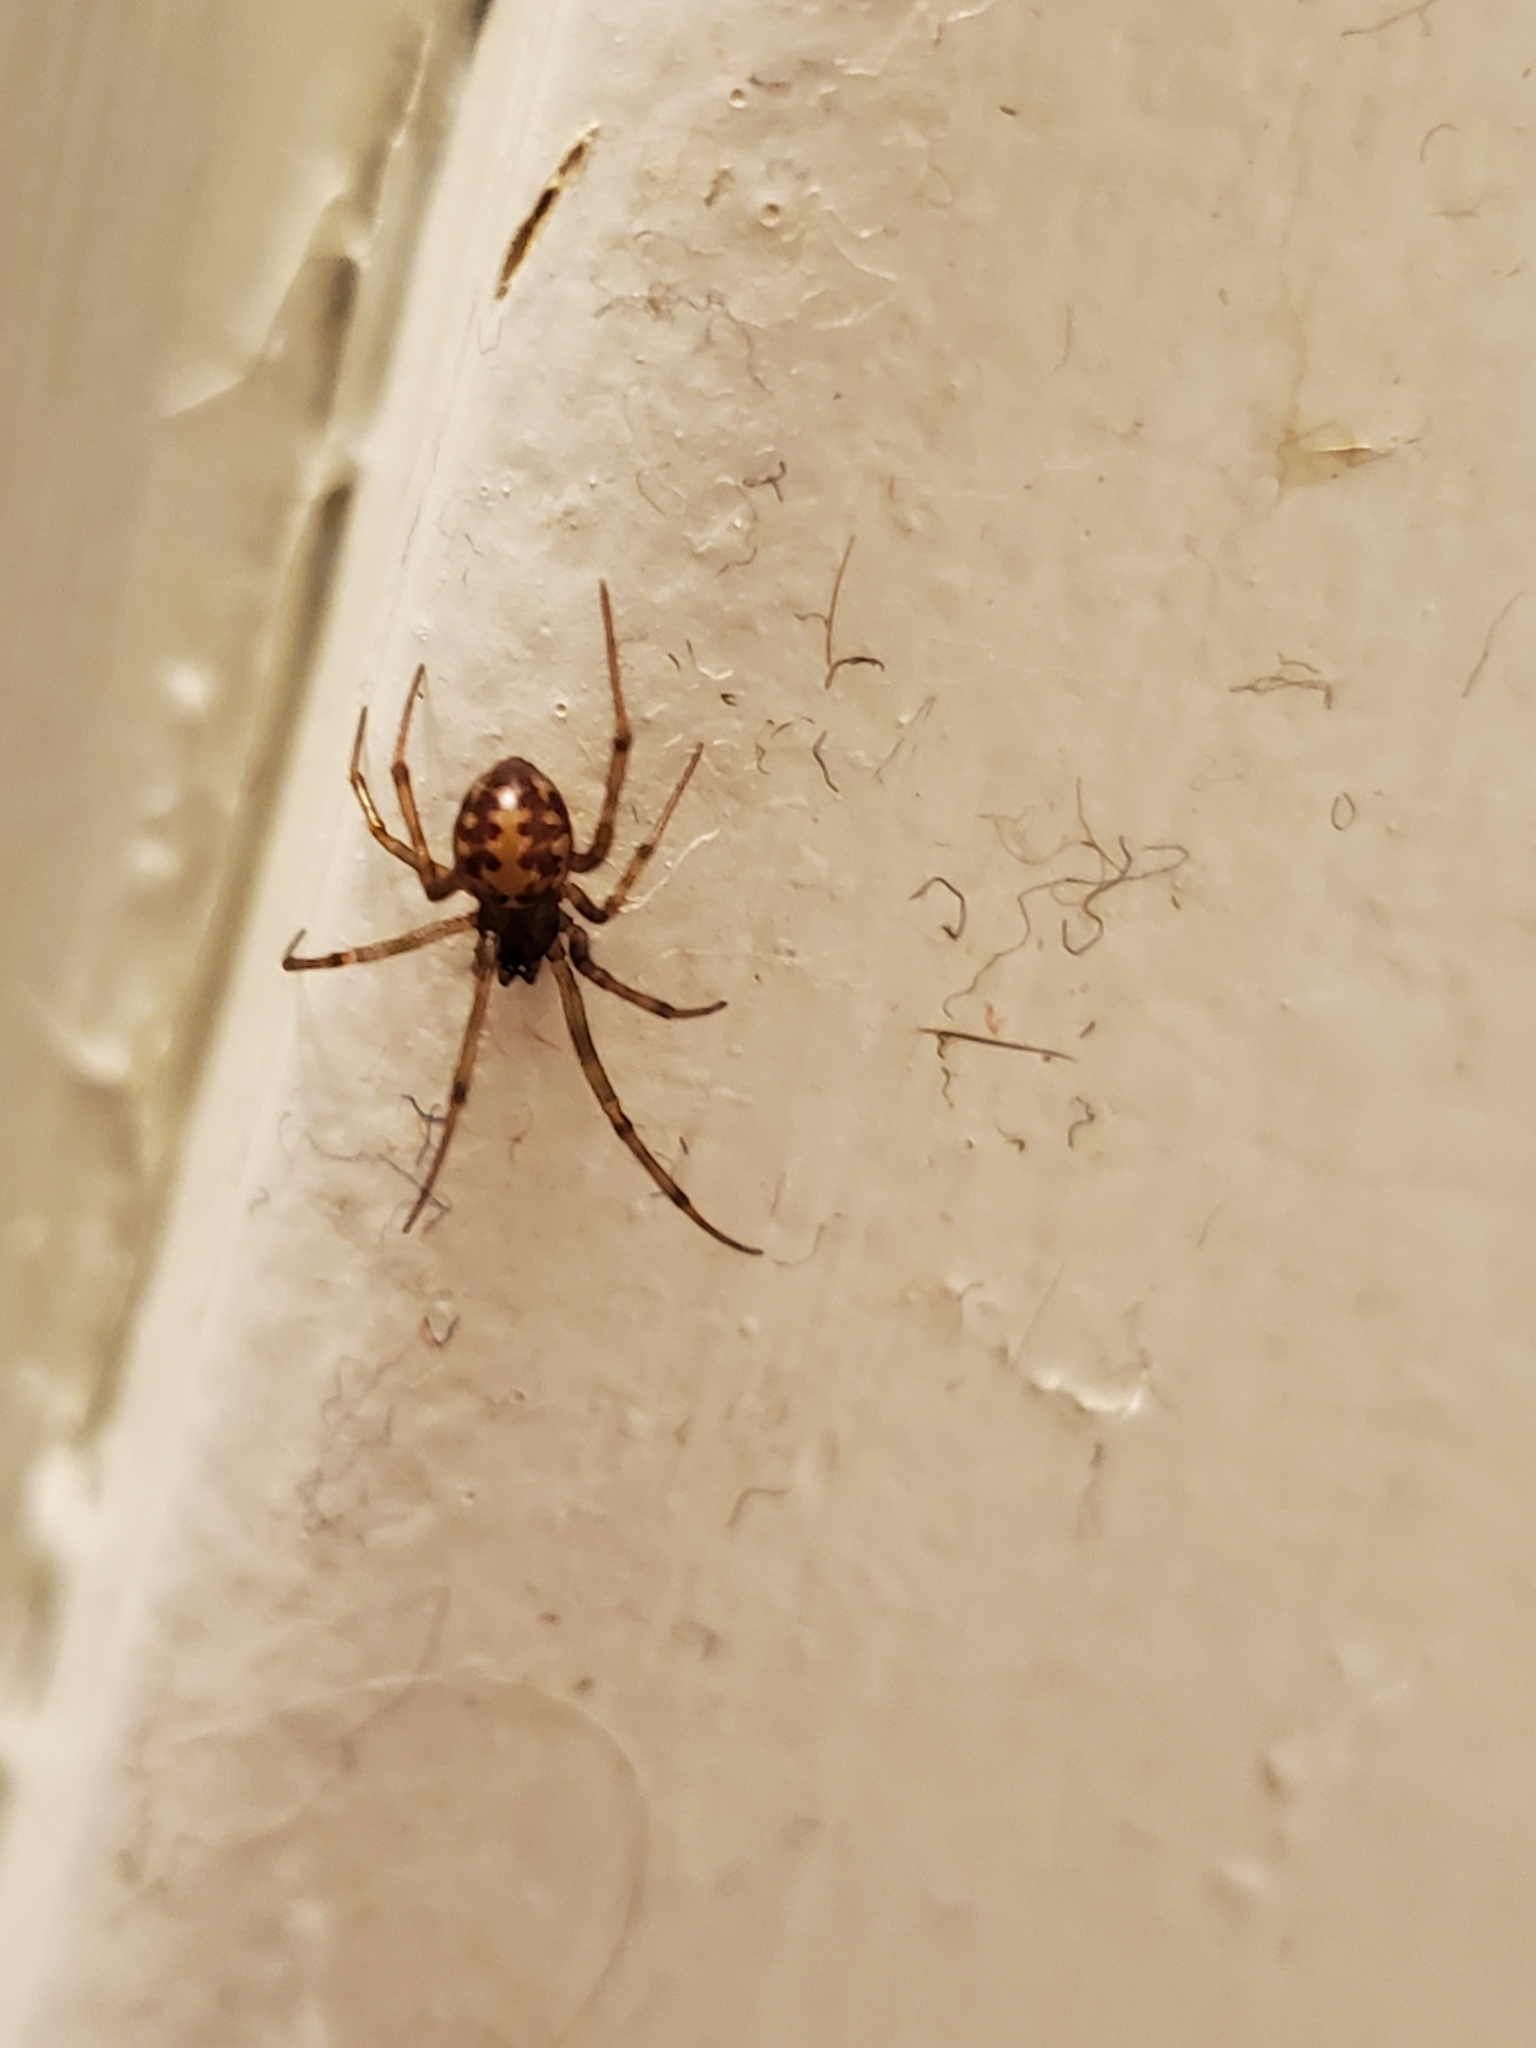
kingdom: Animalia
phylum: Arthropoda
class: Arachnida
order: Araneae
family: Theridiidae
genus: Steatoda
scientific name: Steatoda triangulosa
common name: Triangulate bud spider
